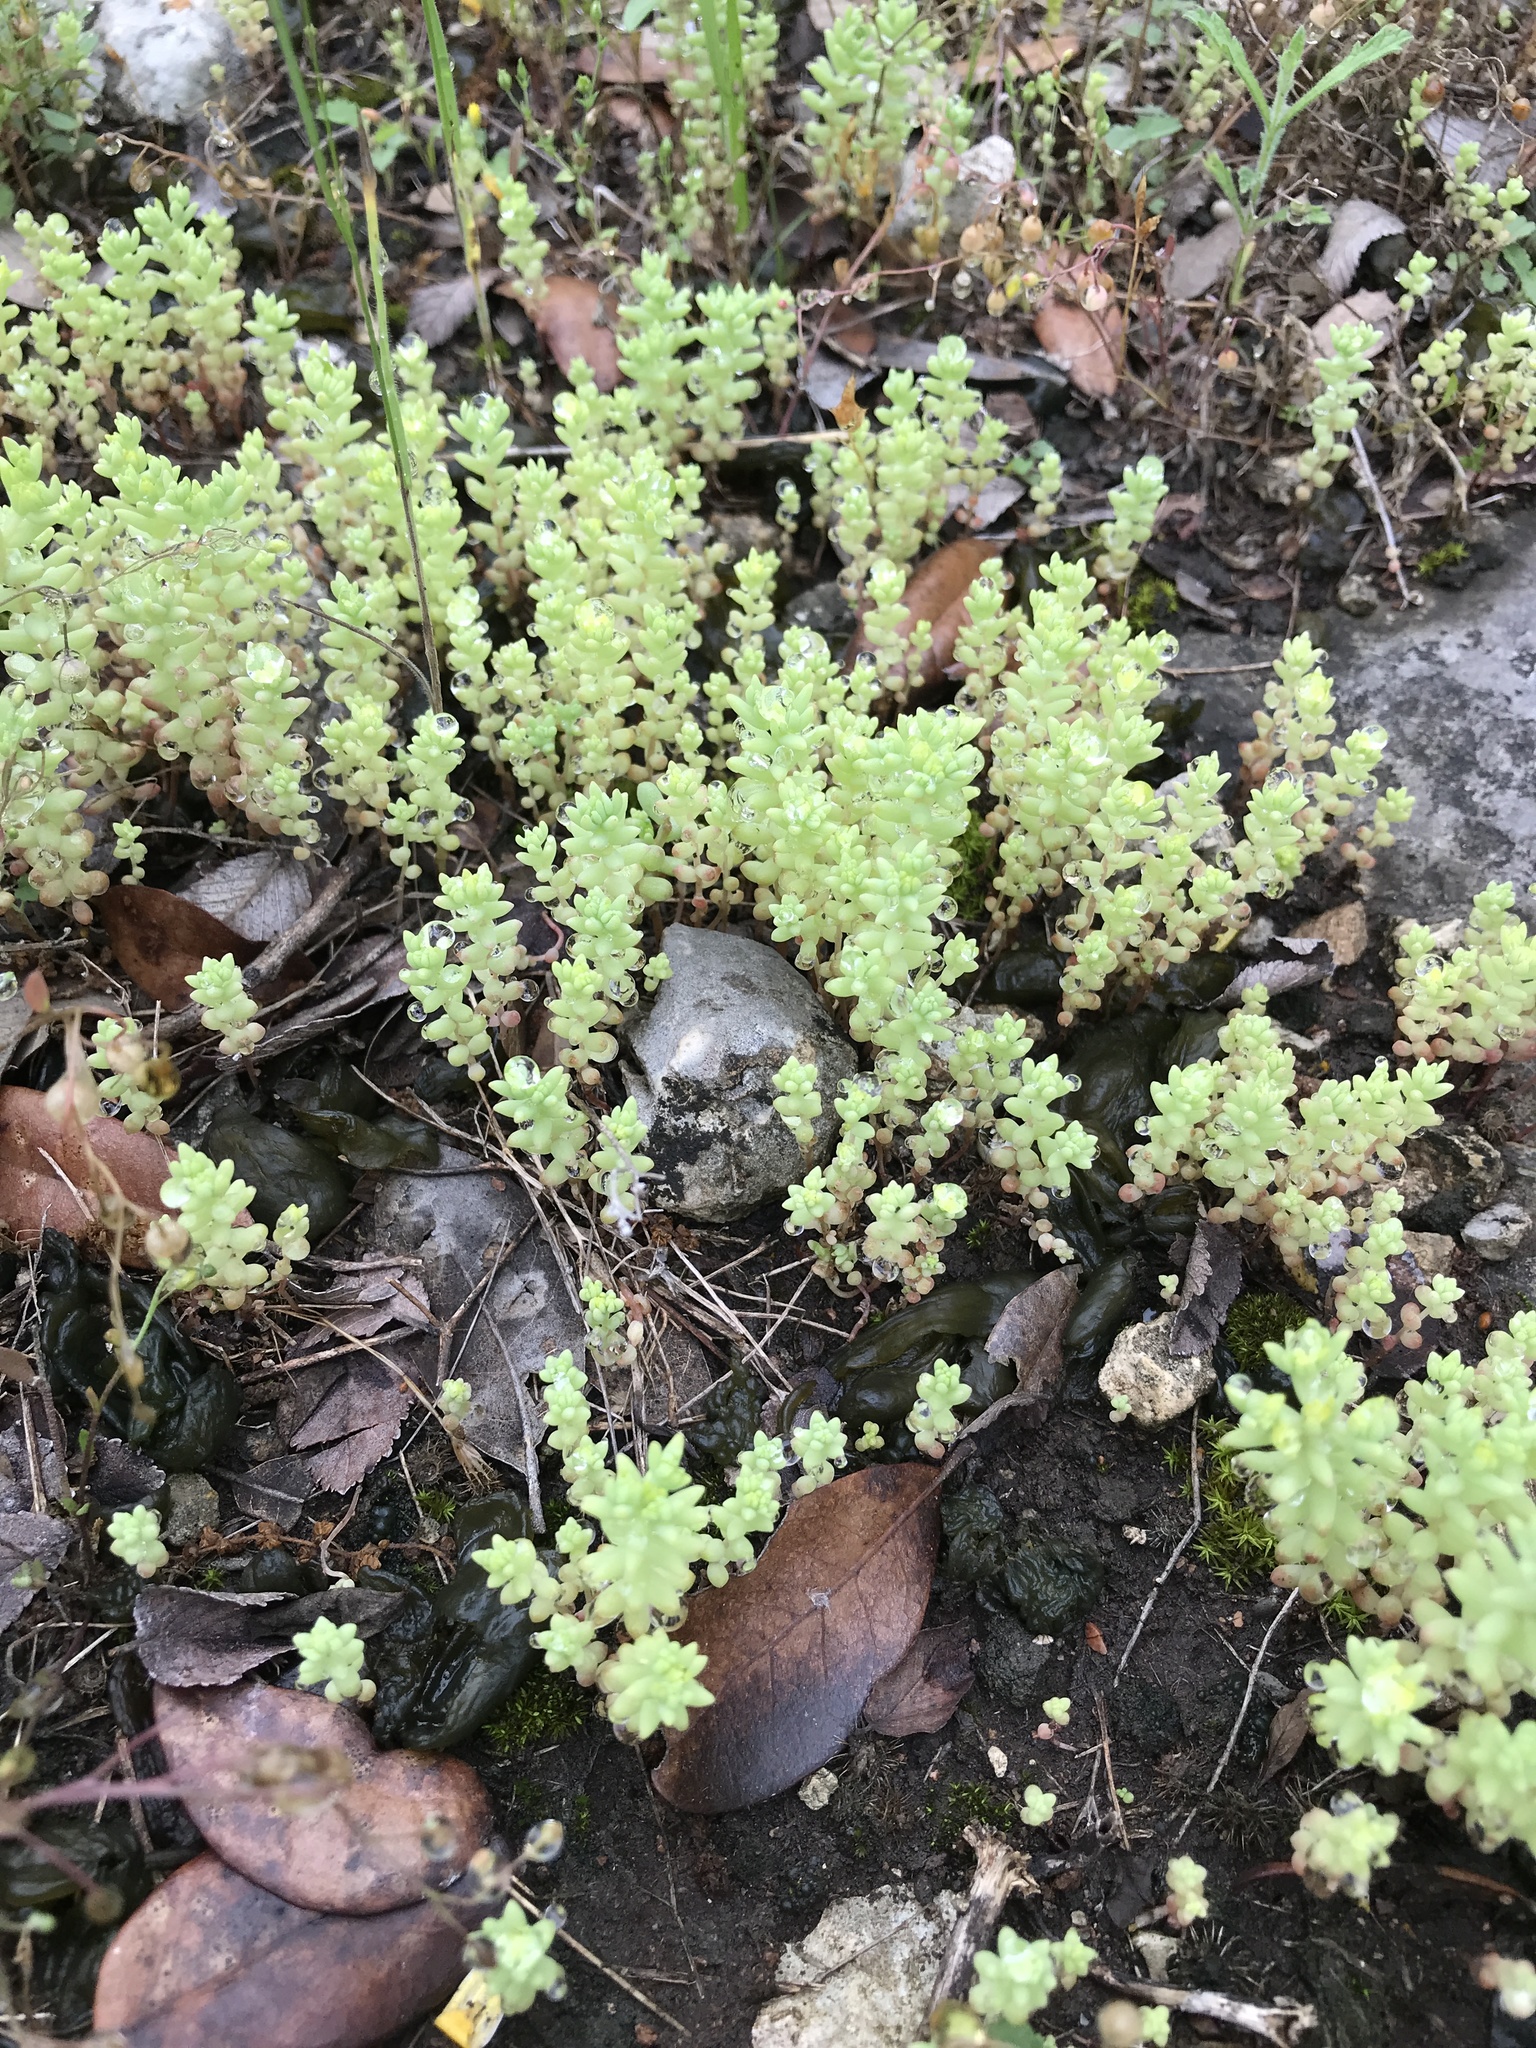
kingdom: Plantae
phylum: Tracheophyta
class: Magnoliopsida
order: Saxifragales
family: Crassulaceae
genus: Sedum
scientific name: Sedum nuttallii
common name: Yellow stonecrop
